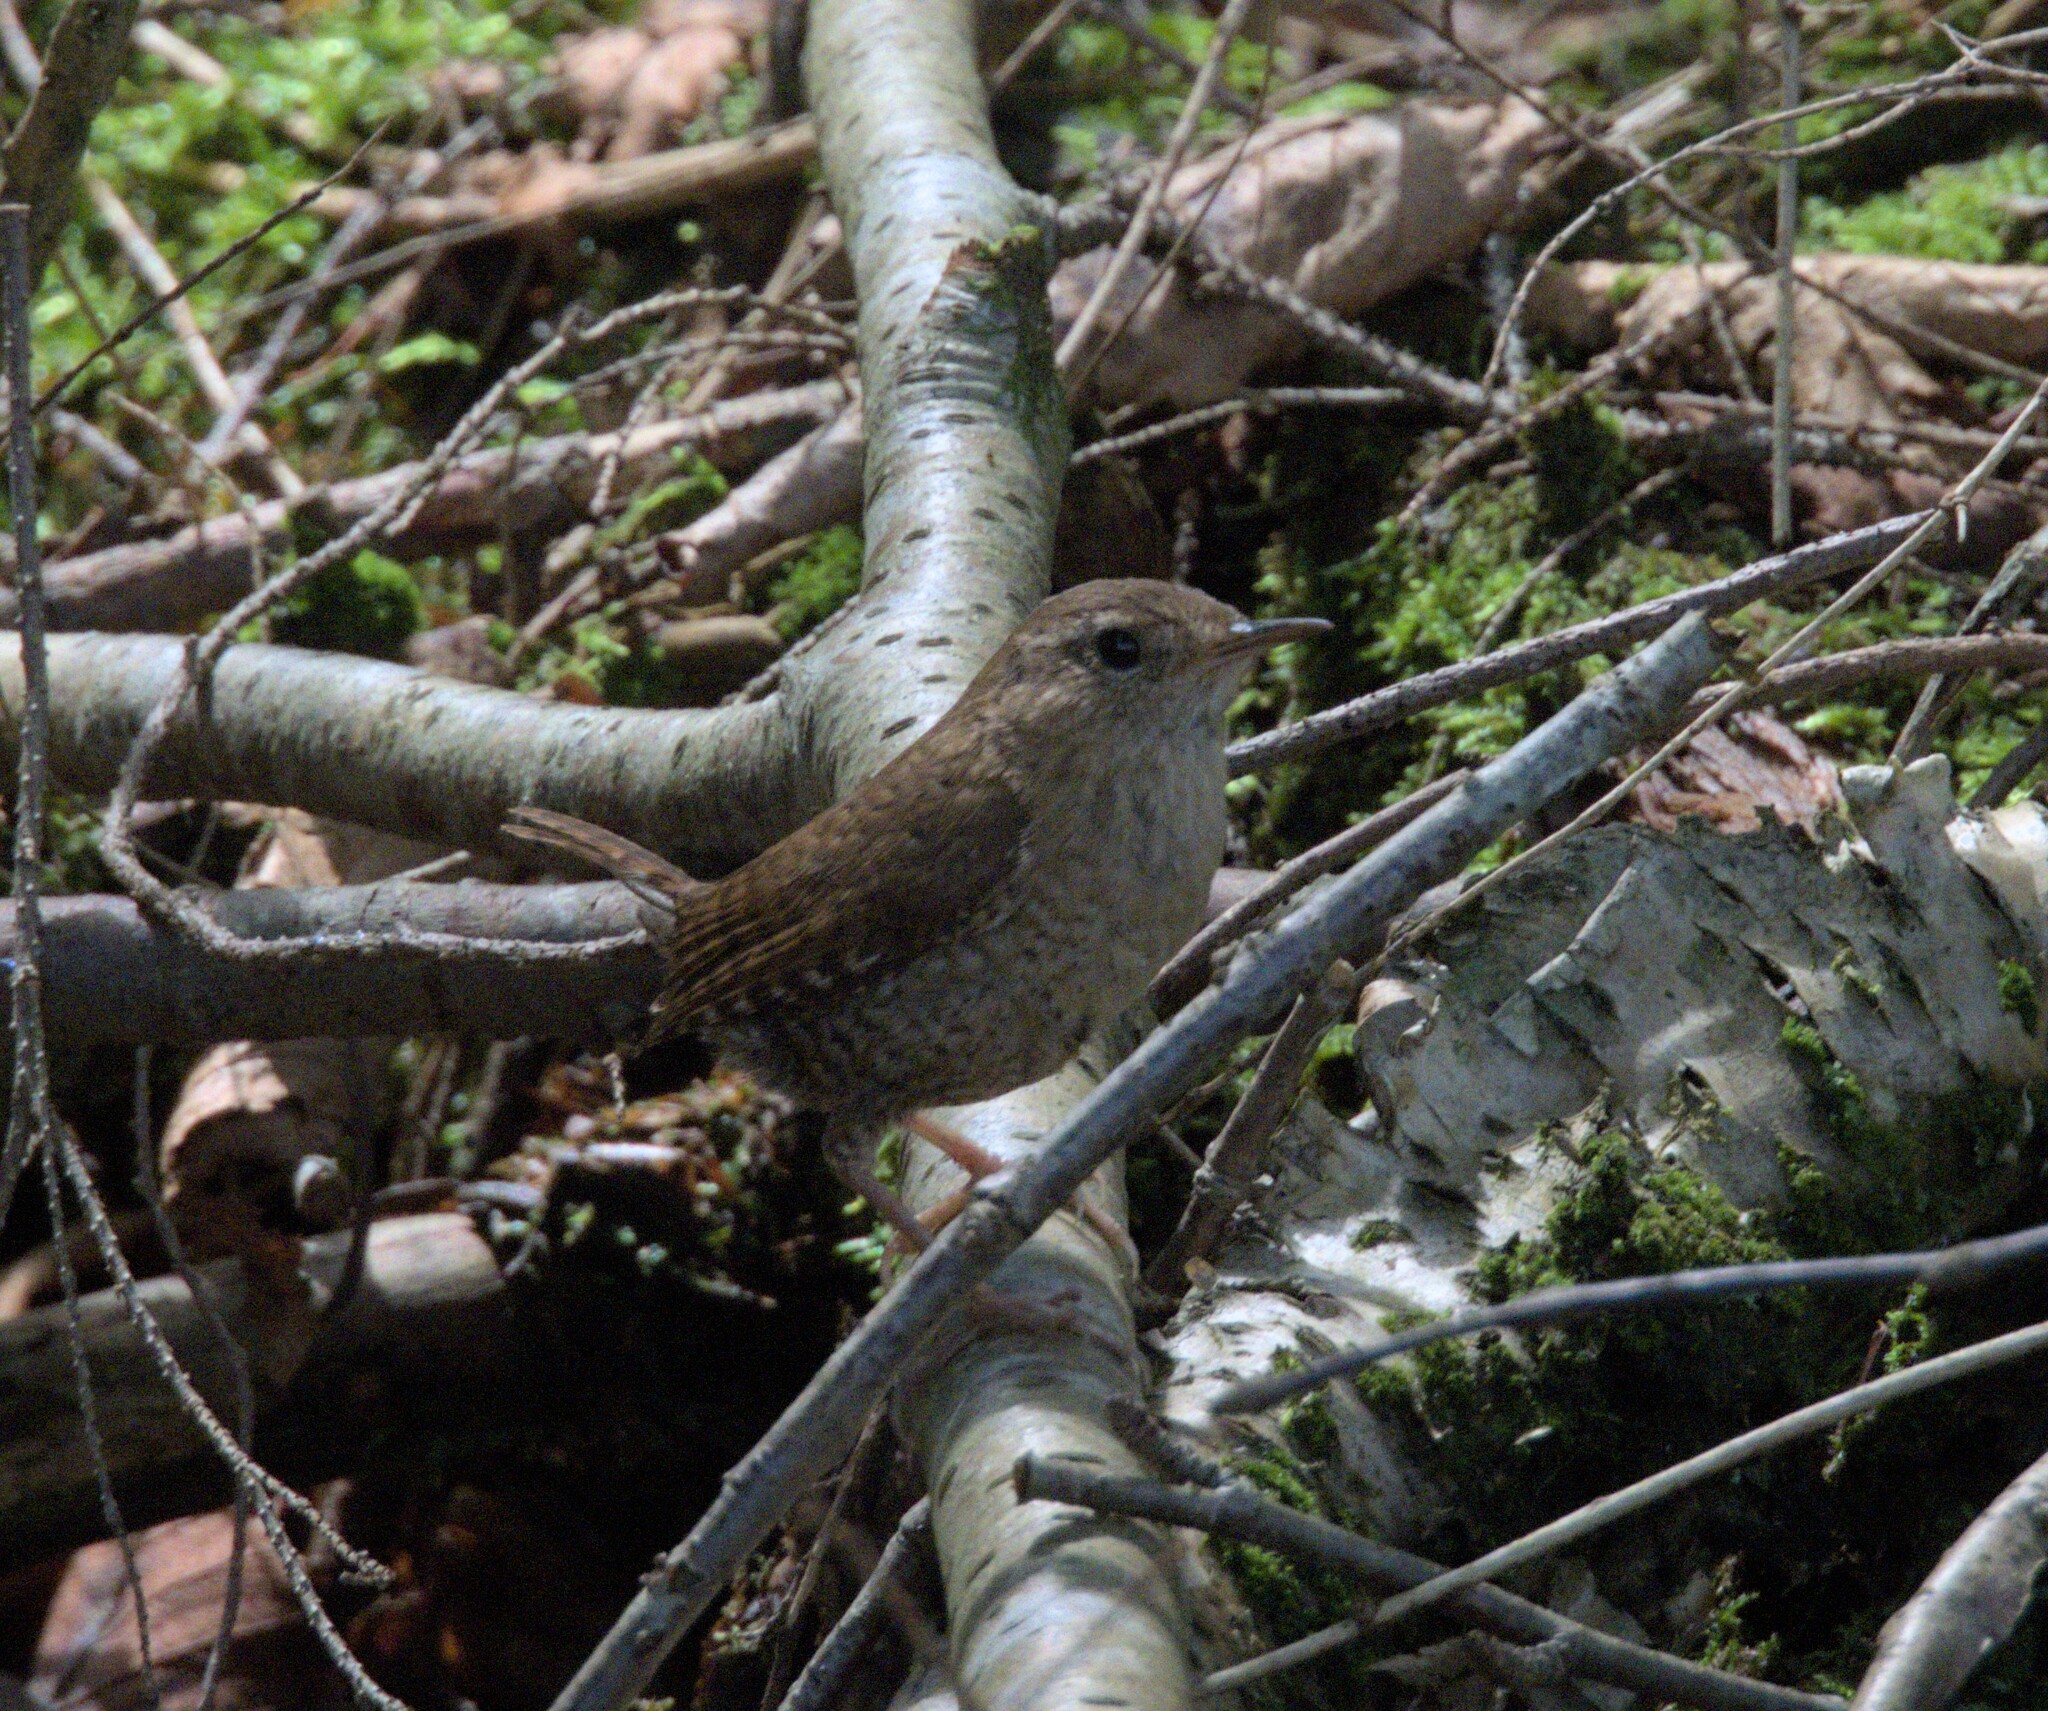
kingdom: Animalia
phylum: Chordata
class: Aves
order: Passeriformes
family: Troglodytidae
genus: Troglodytes
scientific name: Troglodytes hiemalis
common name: Winter wren
